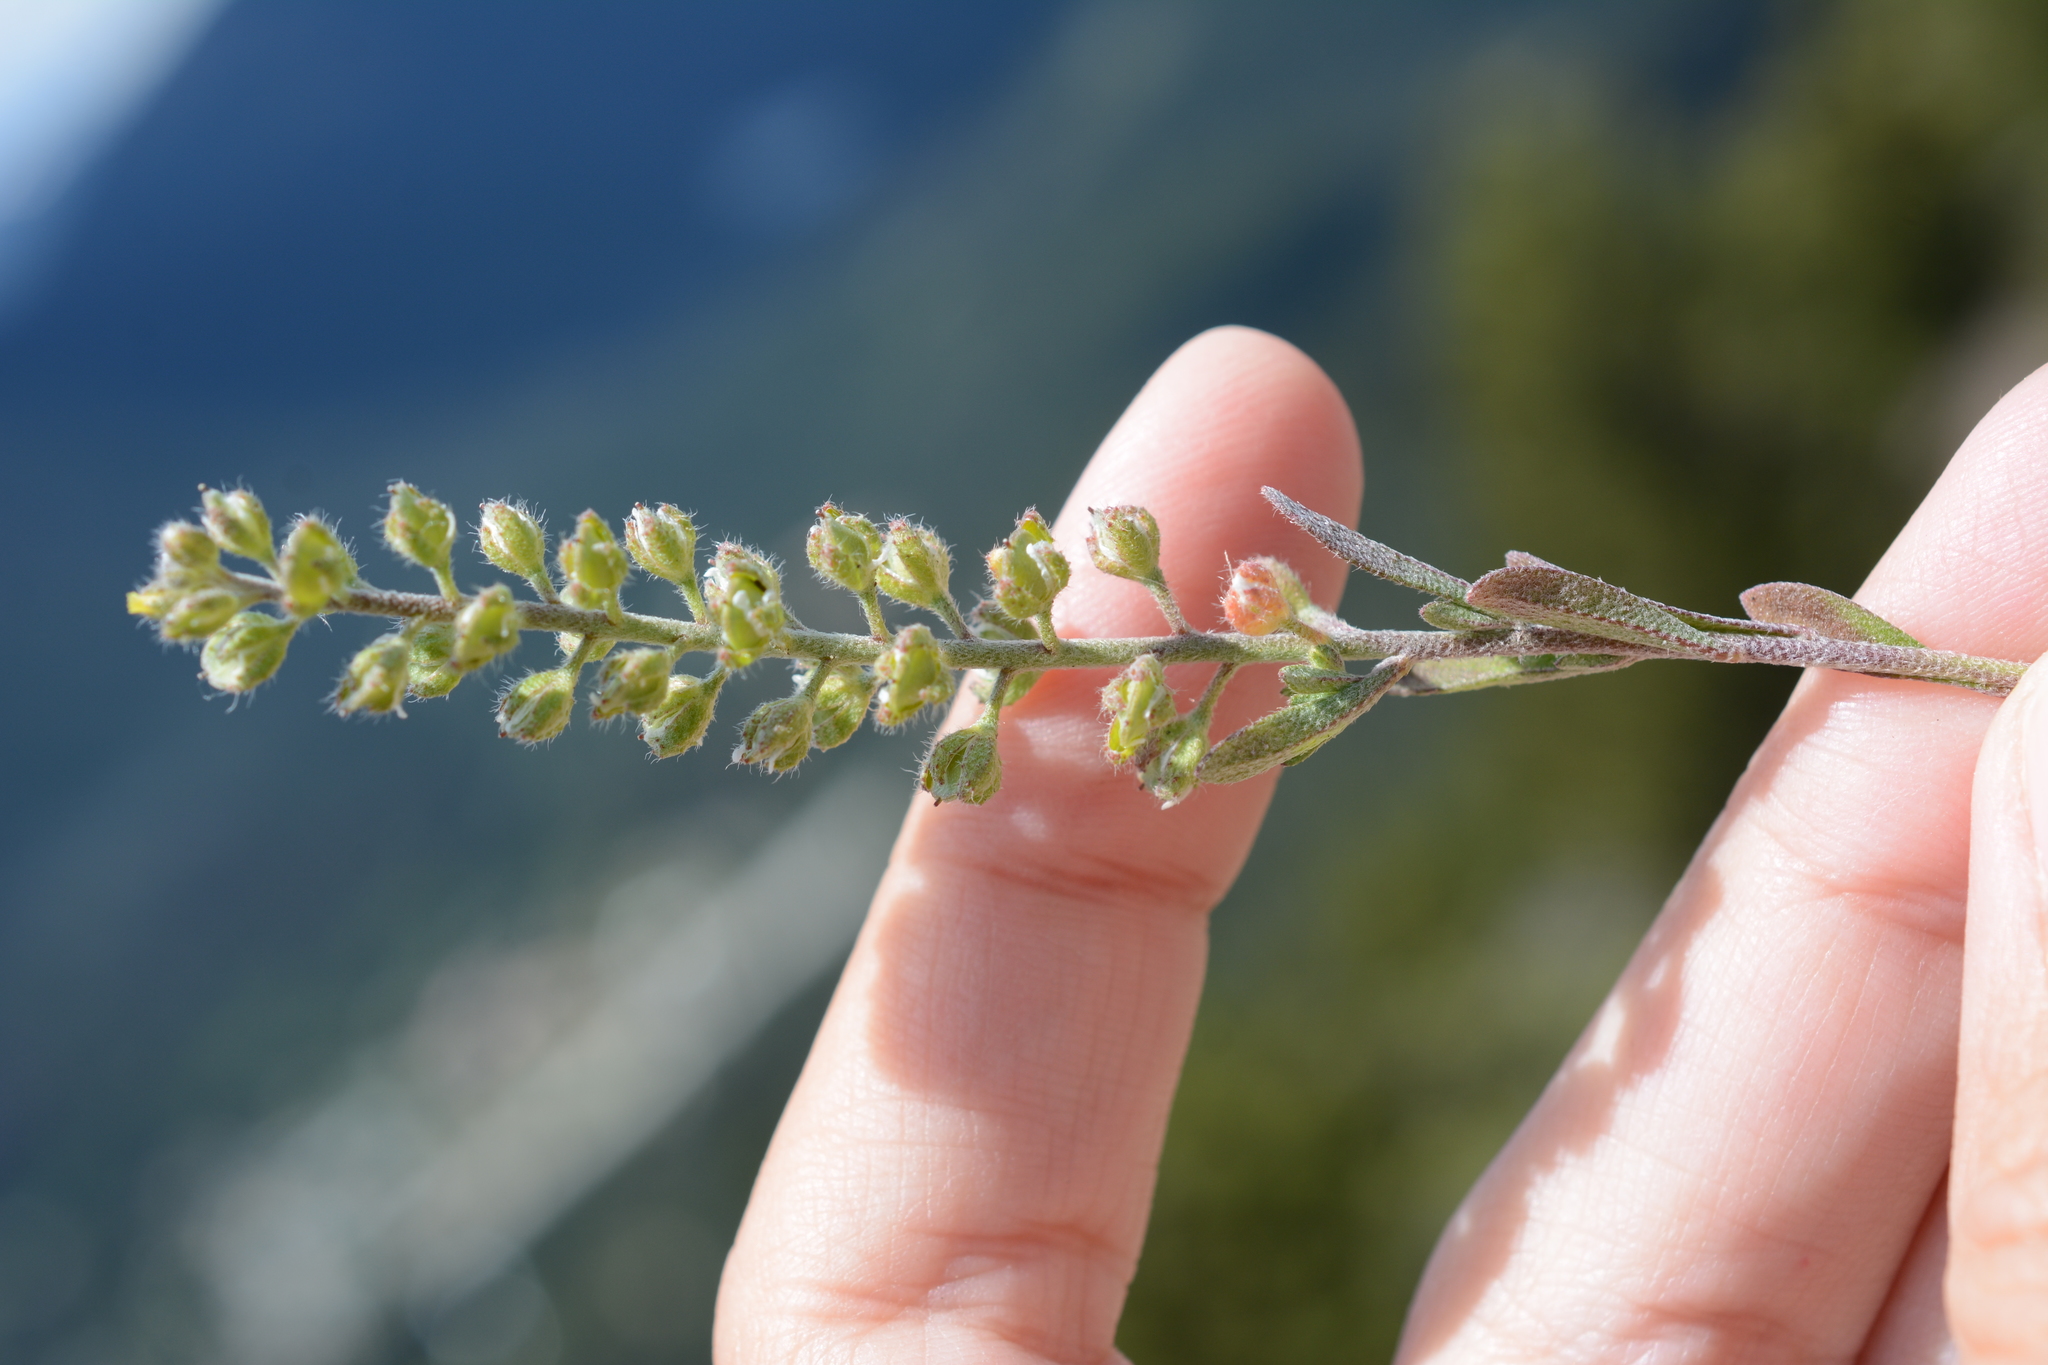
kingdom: Plantae
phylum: Tracheophyta
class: Magnoliopsida
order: Brassicales
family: Brassicaceae
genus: Alyssum
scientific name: Alyssum alyssoides
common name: Small alison
